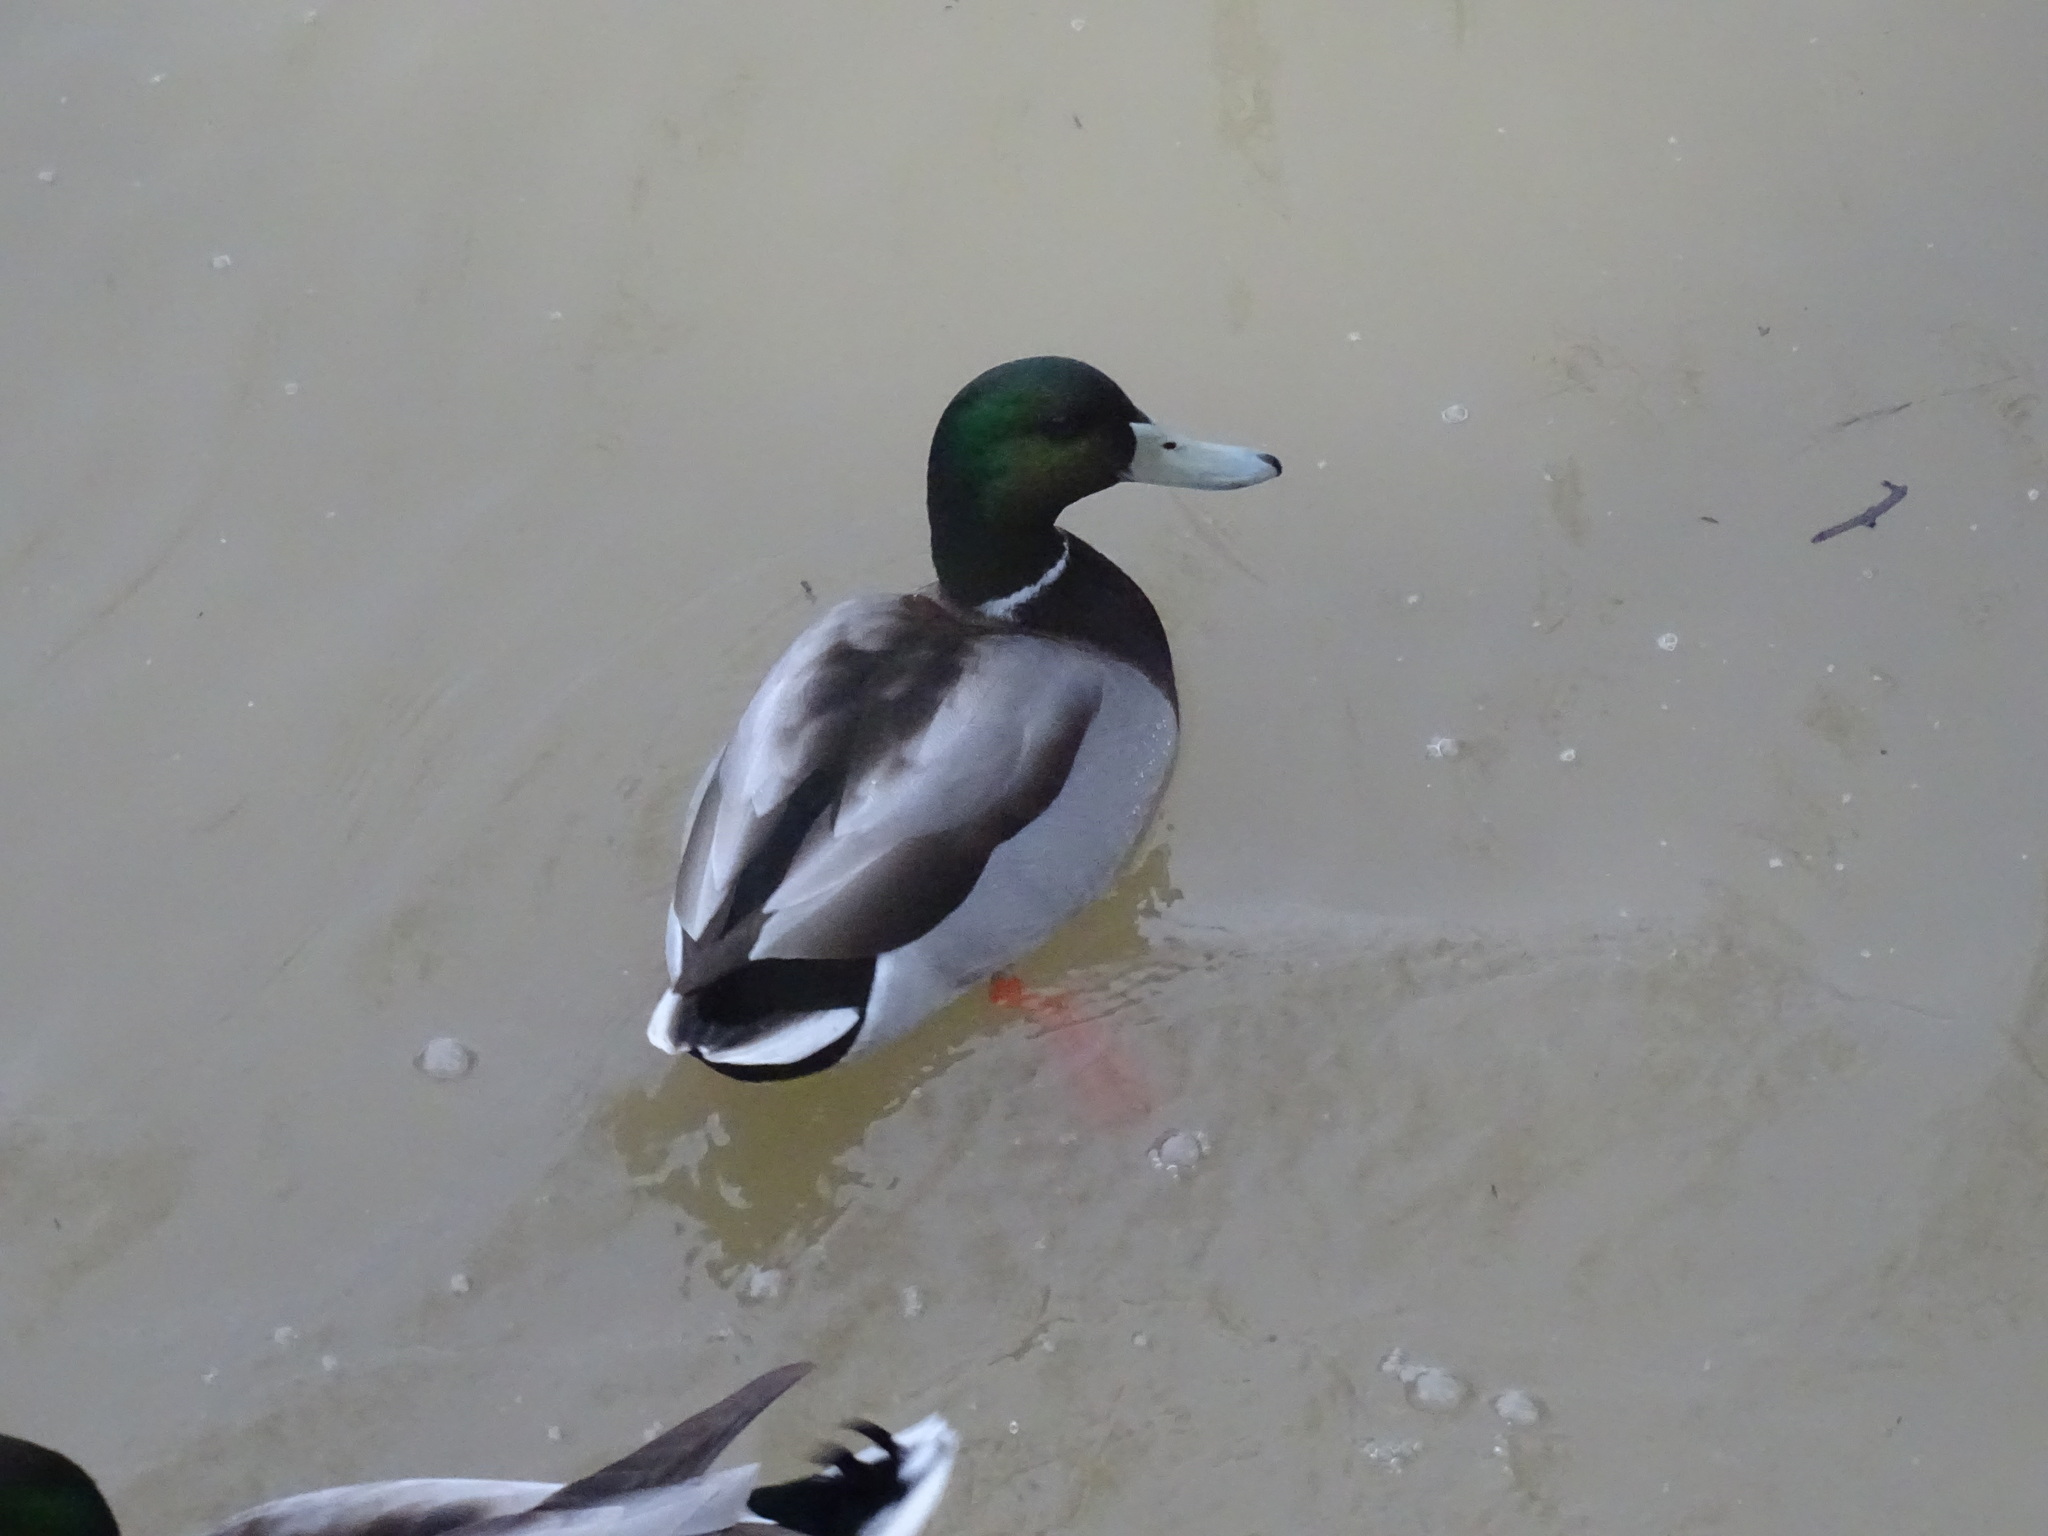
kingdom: Animalia
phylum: Chordata
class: Aves
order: Anseriformes
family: Anatidae
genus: Anas
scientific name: Anas platyrhynchos
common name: Mallard
